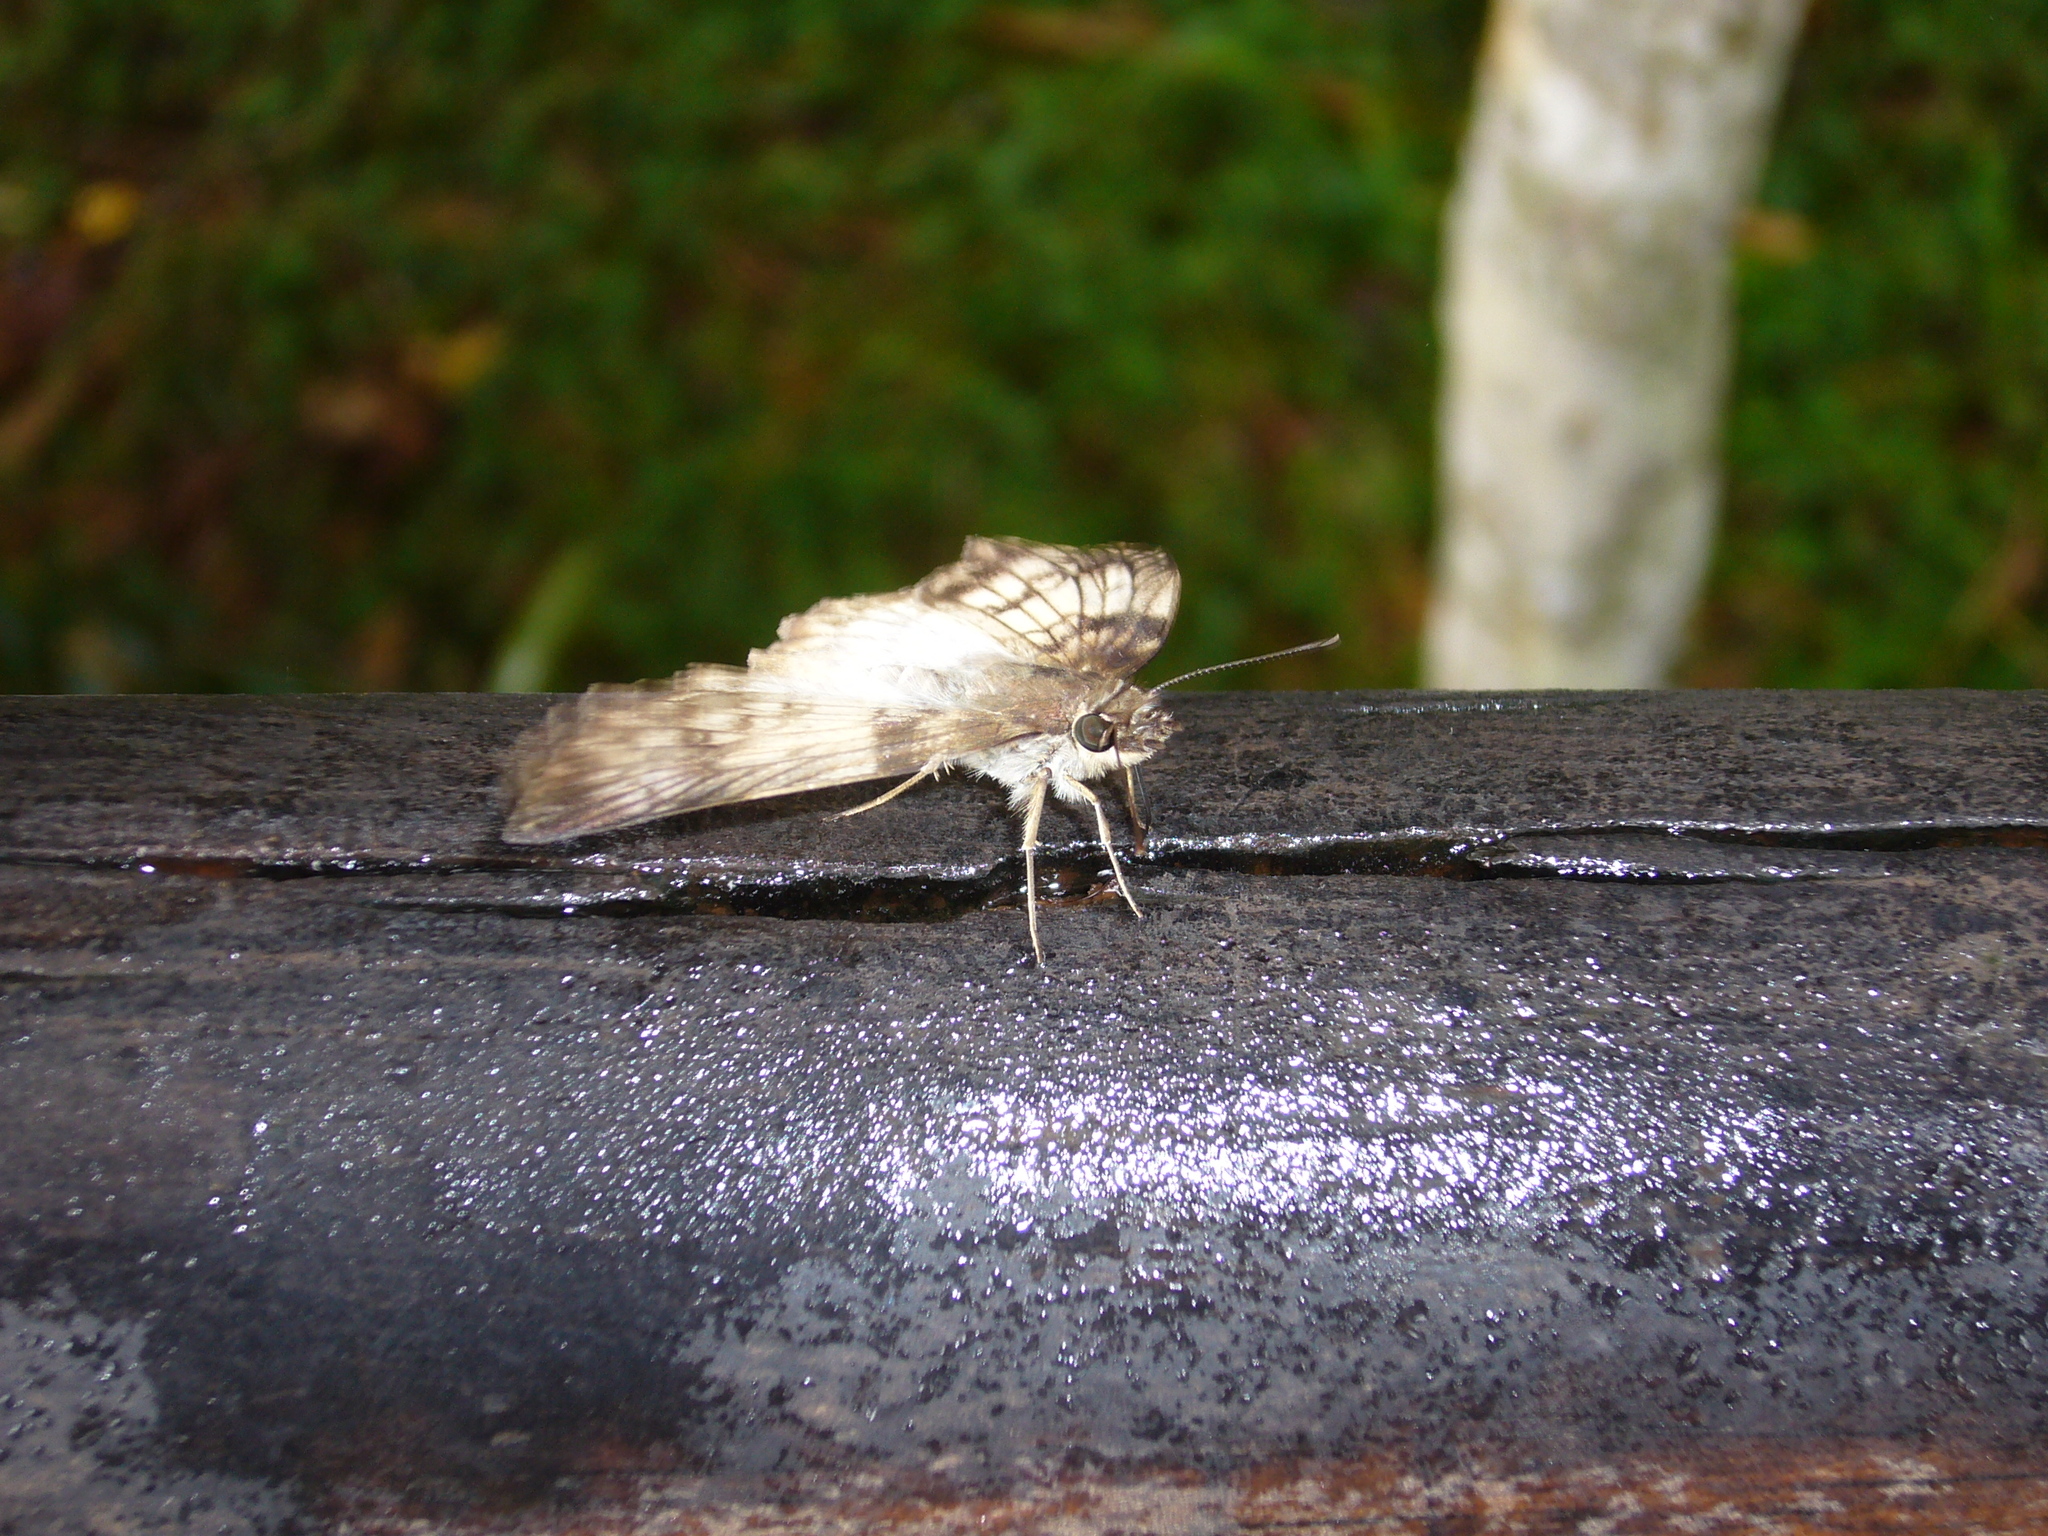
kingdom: Animalia
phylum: Arthropoda
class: Insecta
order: Lepidoptera
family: Hesperiidae
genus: Mylon
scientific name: Mylon maimon
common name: Common mylon
